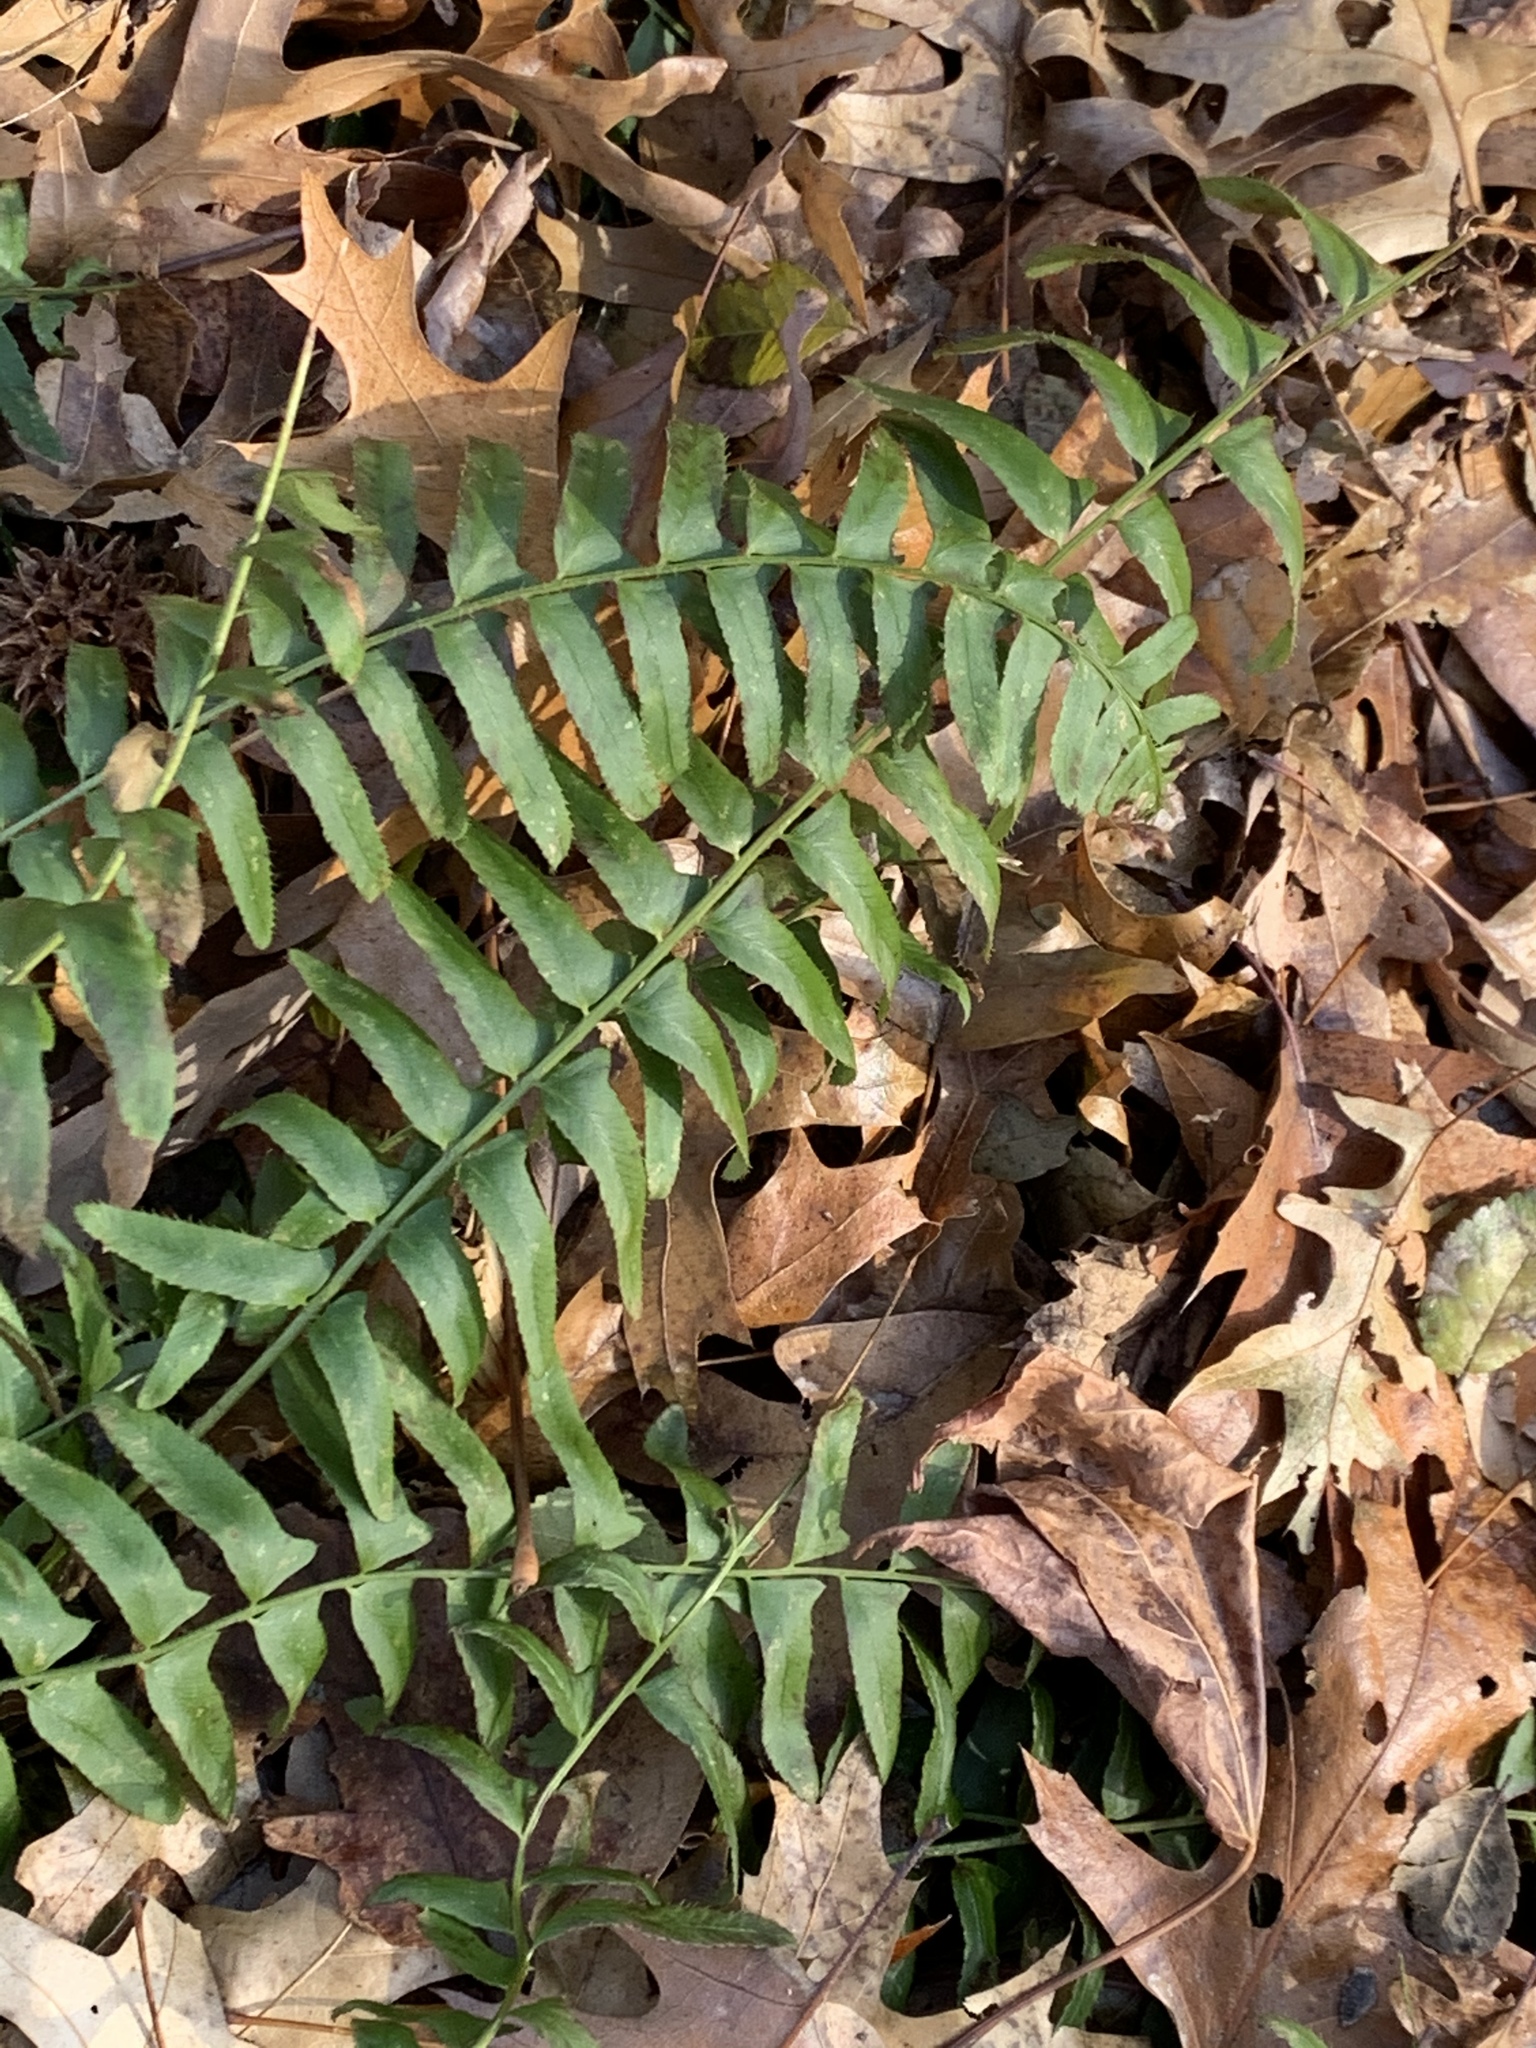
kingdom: Plantae
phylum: Tracheophyta
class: Polypodiopsida
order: Polypodiales
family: Dryopteridaceae
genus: Polystichum
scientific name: Polystichum acrostichoides
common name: Christmas fern
